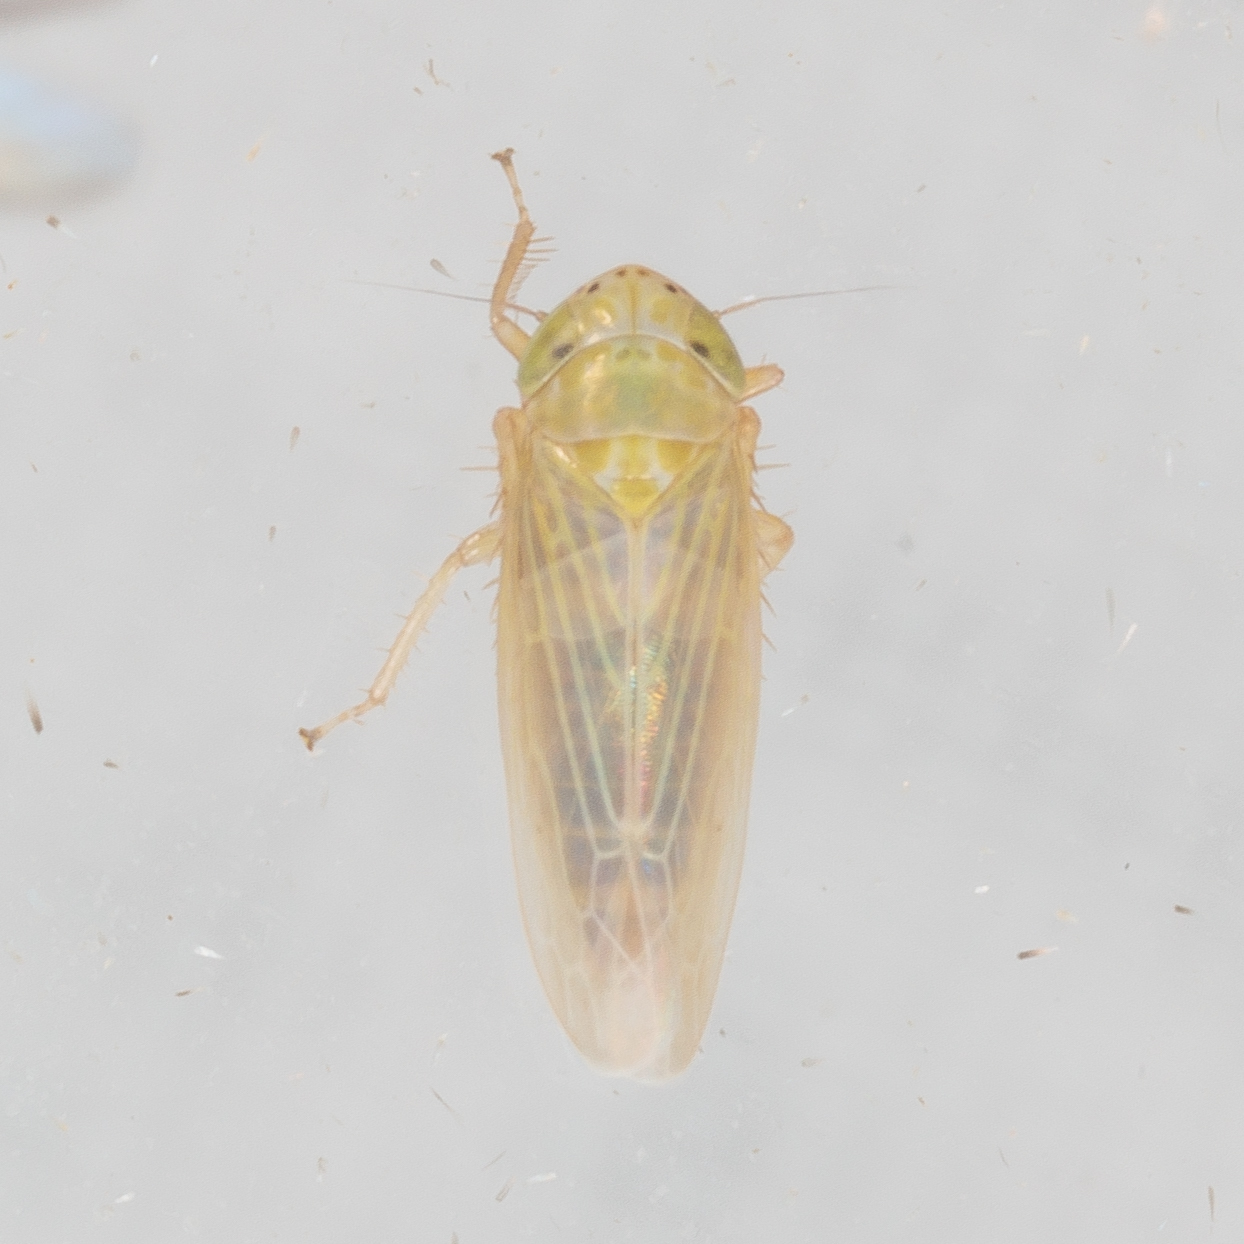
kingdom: Animalia
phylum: Arthropoda
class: Insecta
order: Hemiptera
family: Cicadellidae
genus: Graminella
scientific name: Graminella nigrifrons
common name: Blackfaced leafhopper
